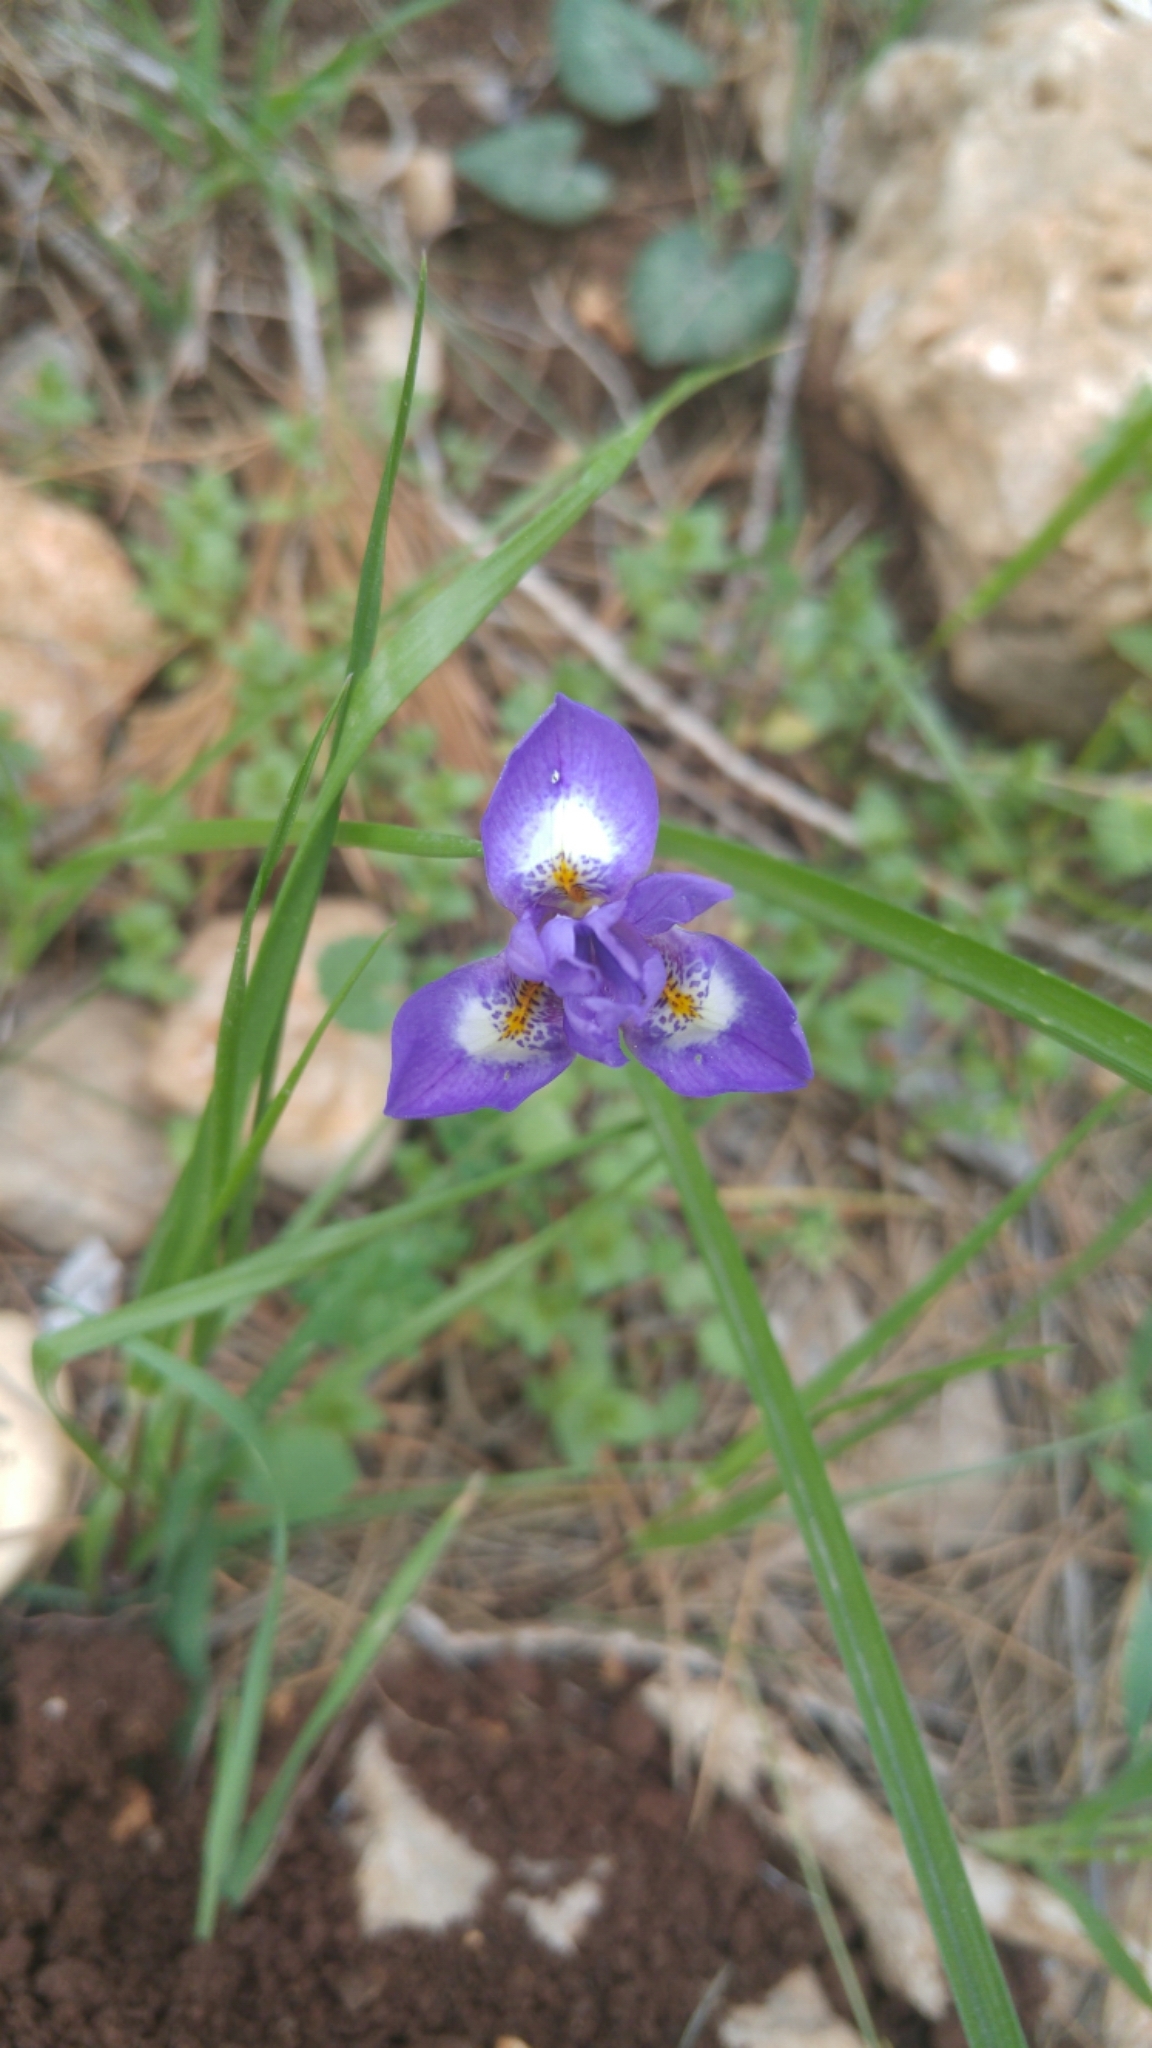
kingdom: Plantae
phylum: Tracheophyta
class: Liliopsida
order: Asparagales
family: Iridaceae
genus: Moraea
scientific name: Moraea sisyrinchium
